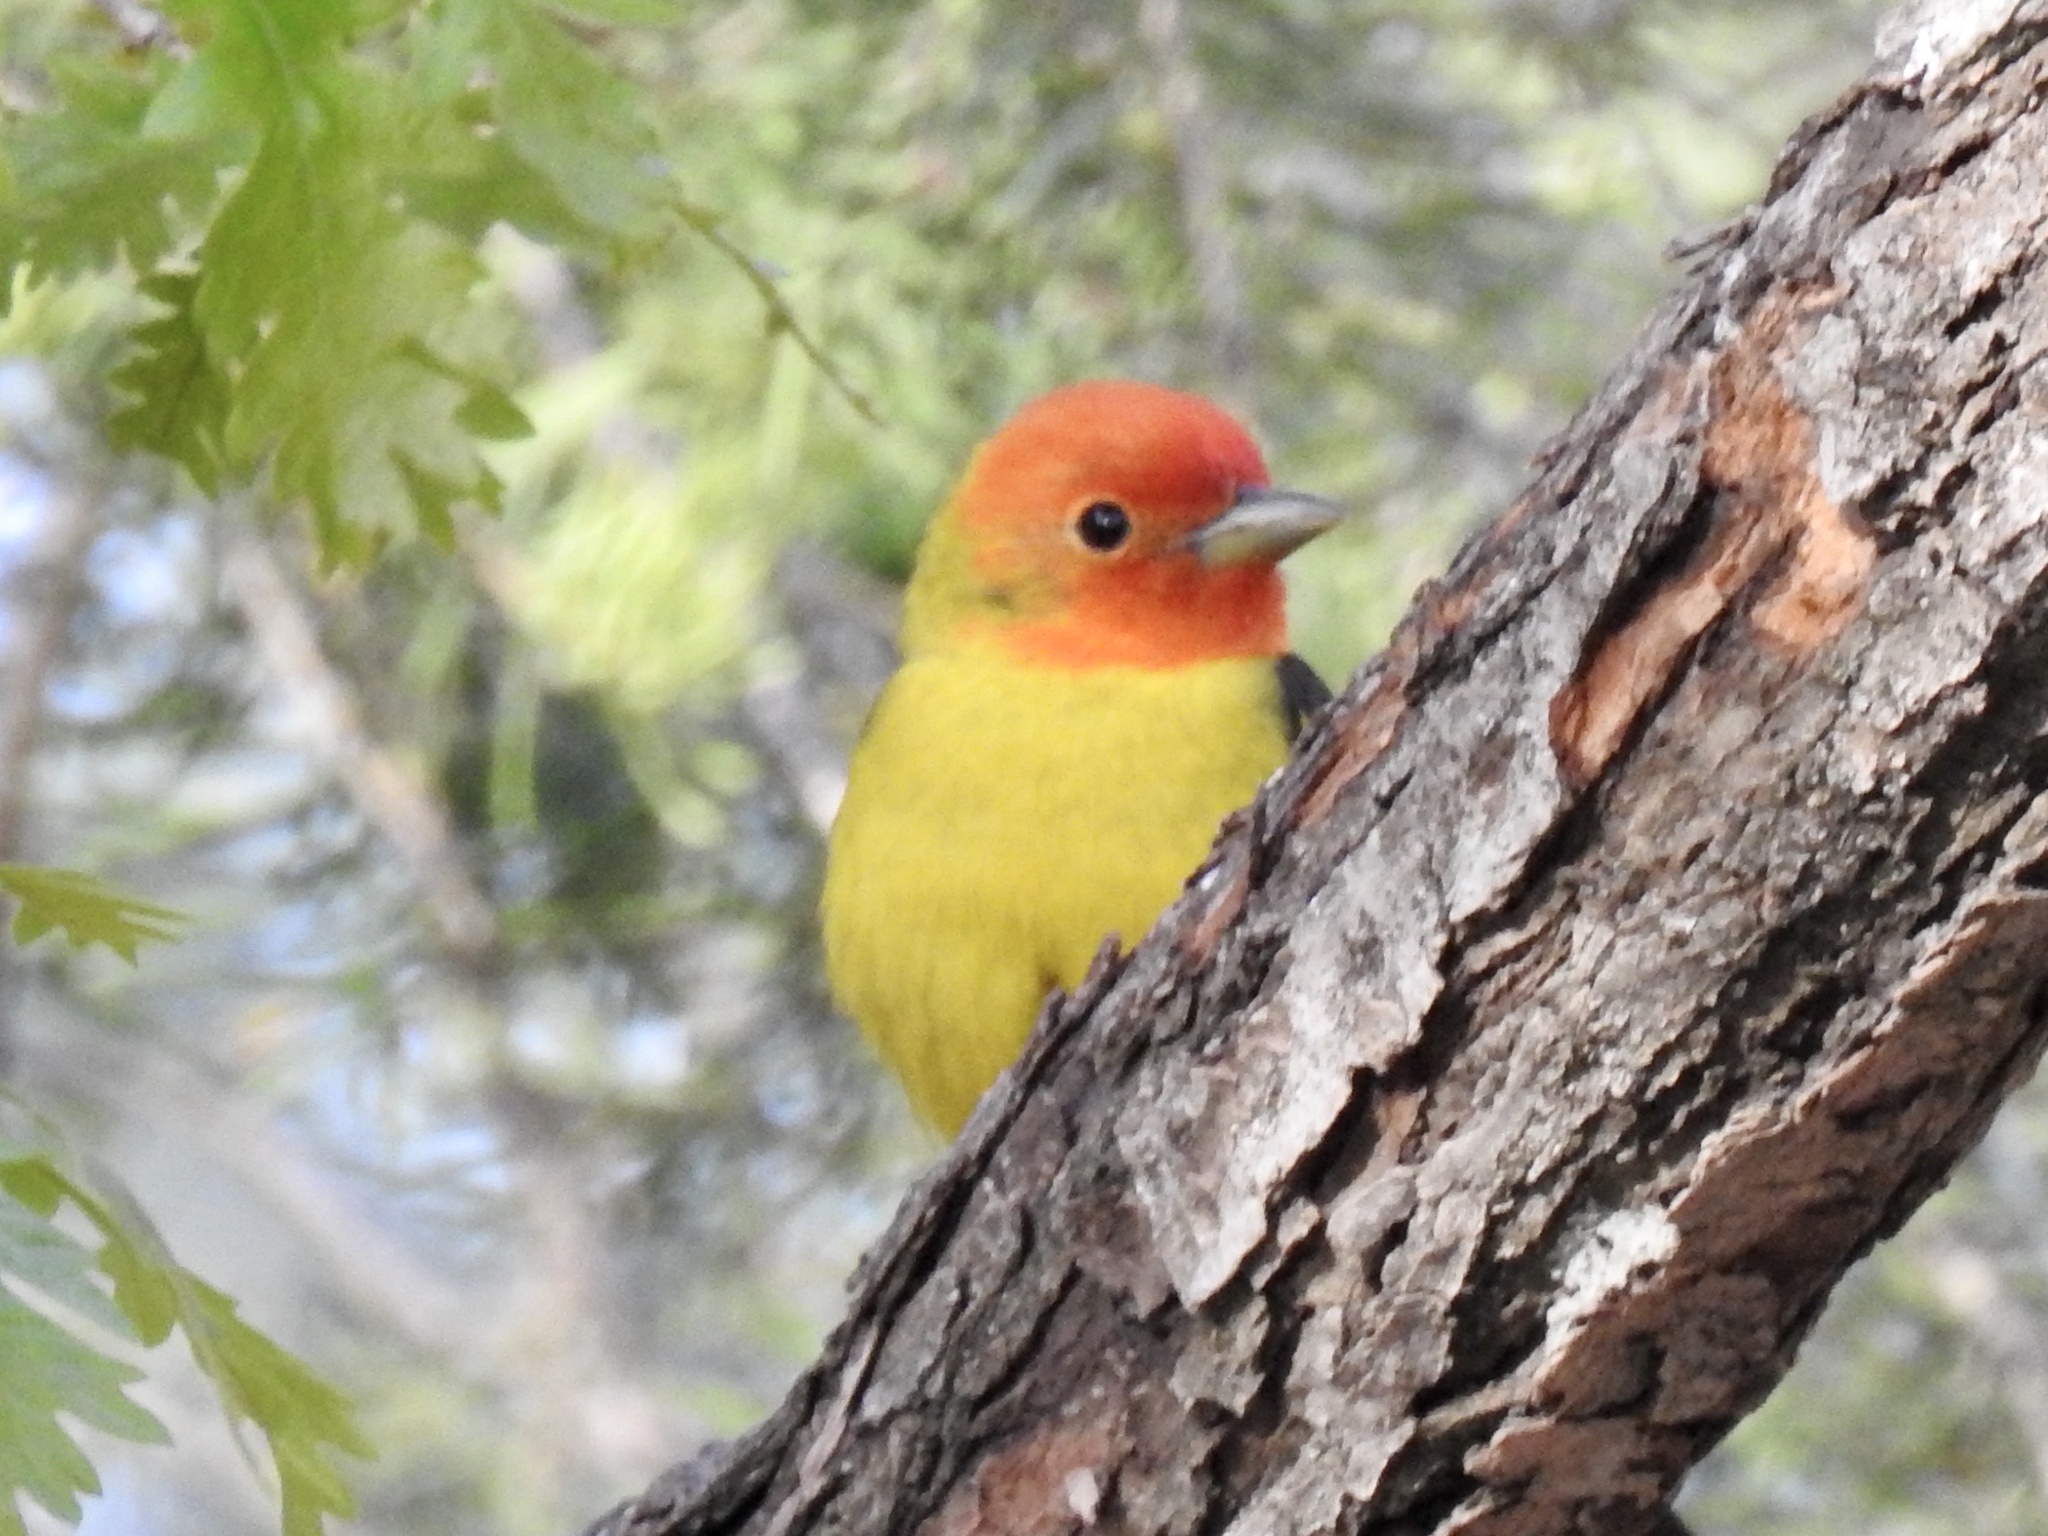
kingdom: Animalia
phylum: Chordata
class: Aves
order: Passeriformes
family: Cardinalidae
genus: Piranga
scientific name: Piranga ludoviciana
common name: Western tanager
